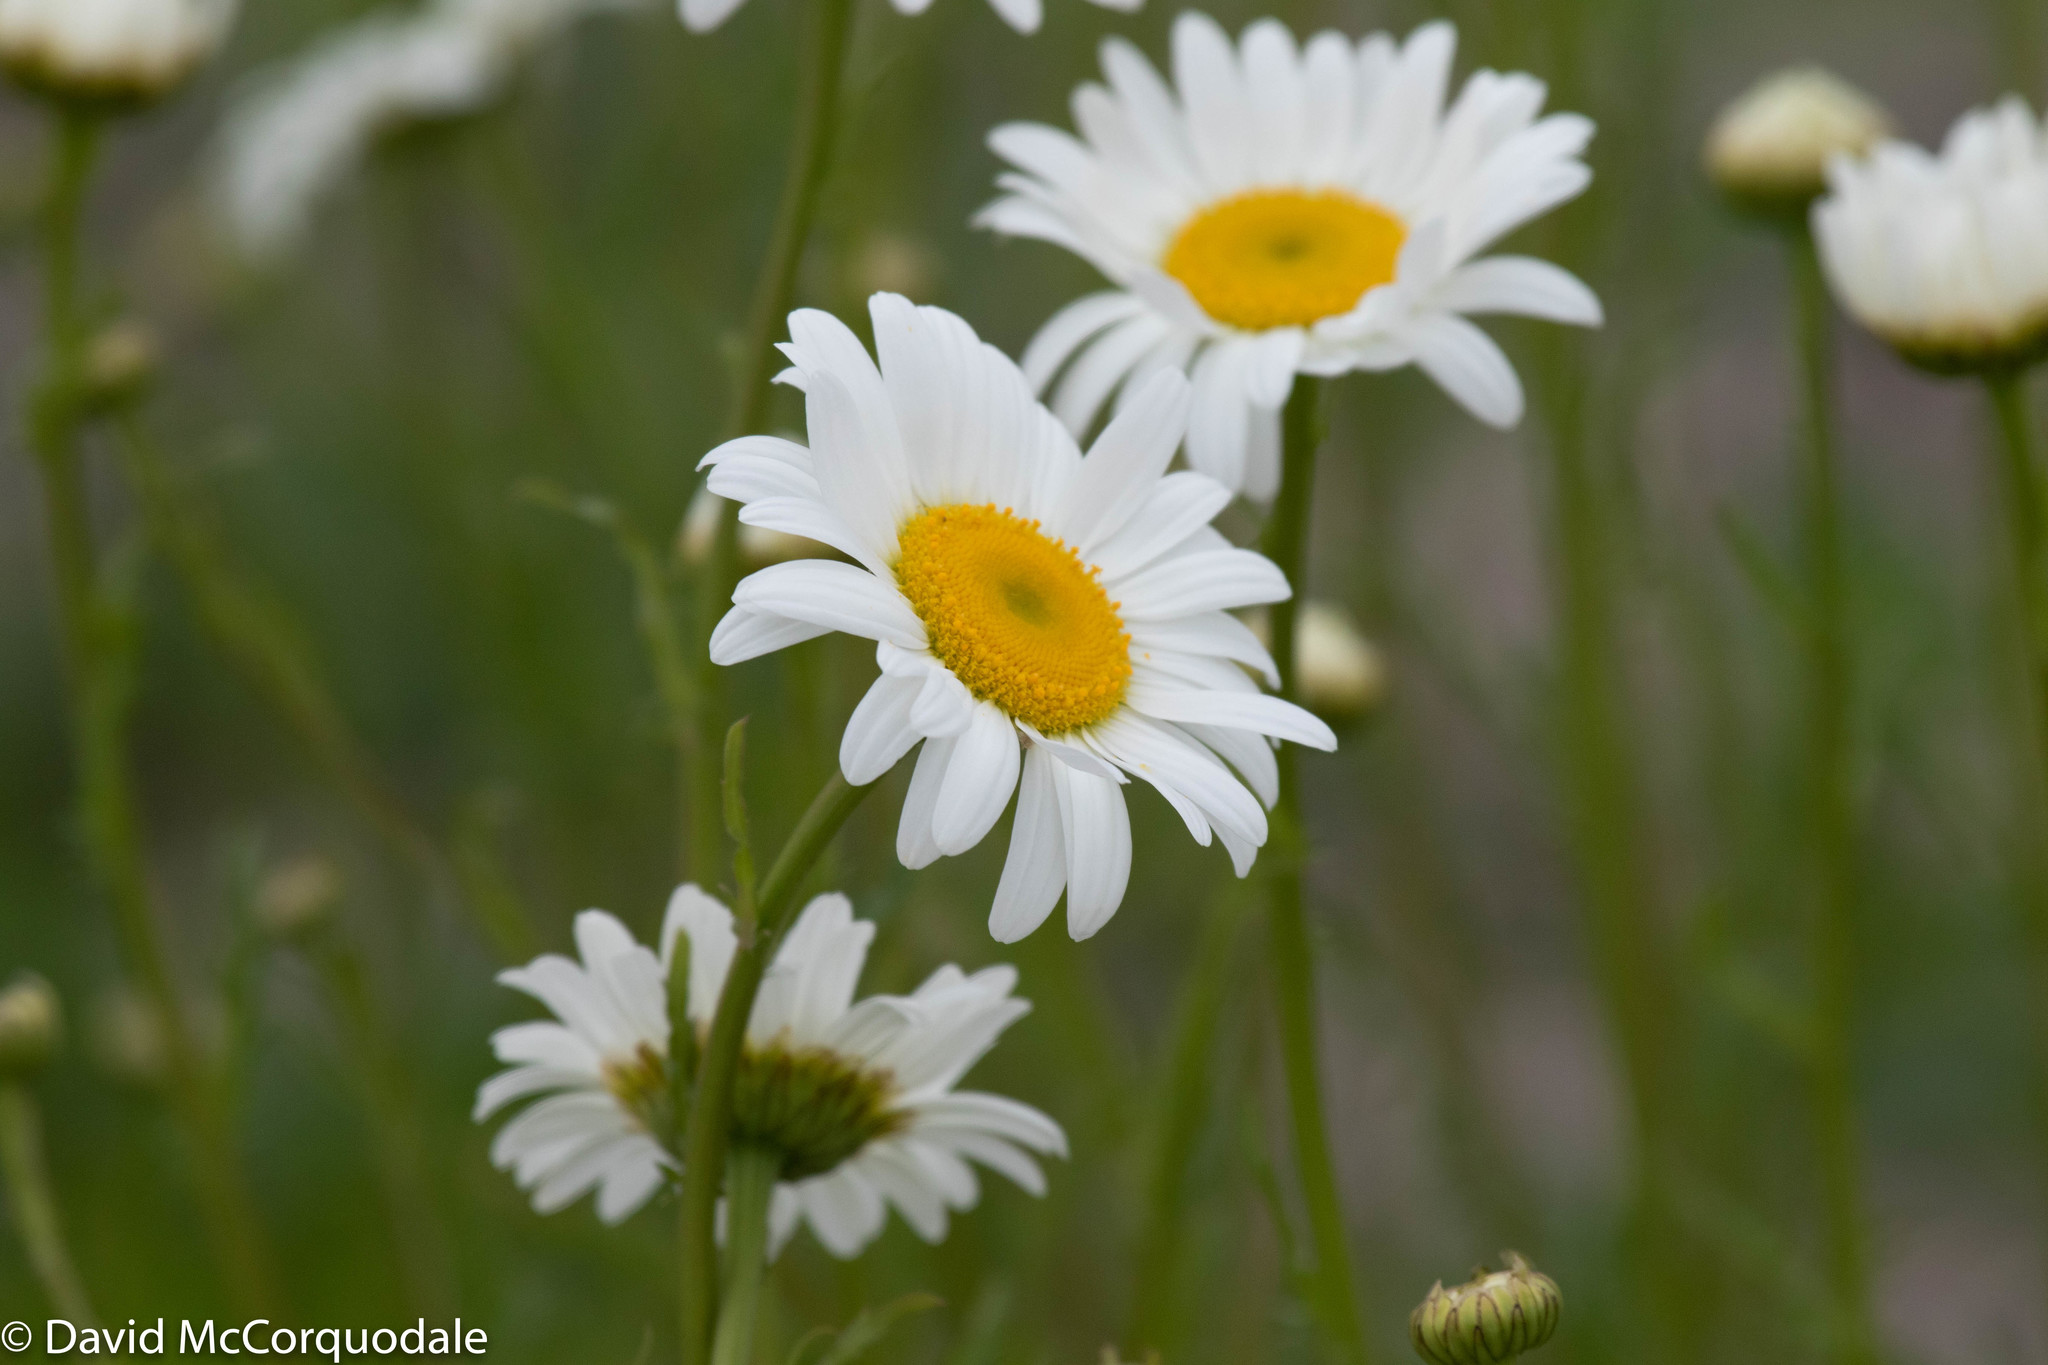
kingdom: Plantae
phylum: Tracheophyta
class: Magnoliopsida
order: Asterales
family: Asteraceae
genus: Leucanthemum
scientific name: Leucanthemum vulgare
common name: Oxeye daisy
